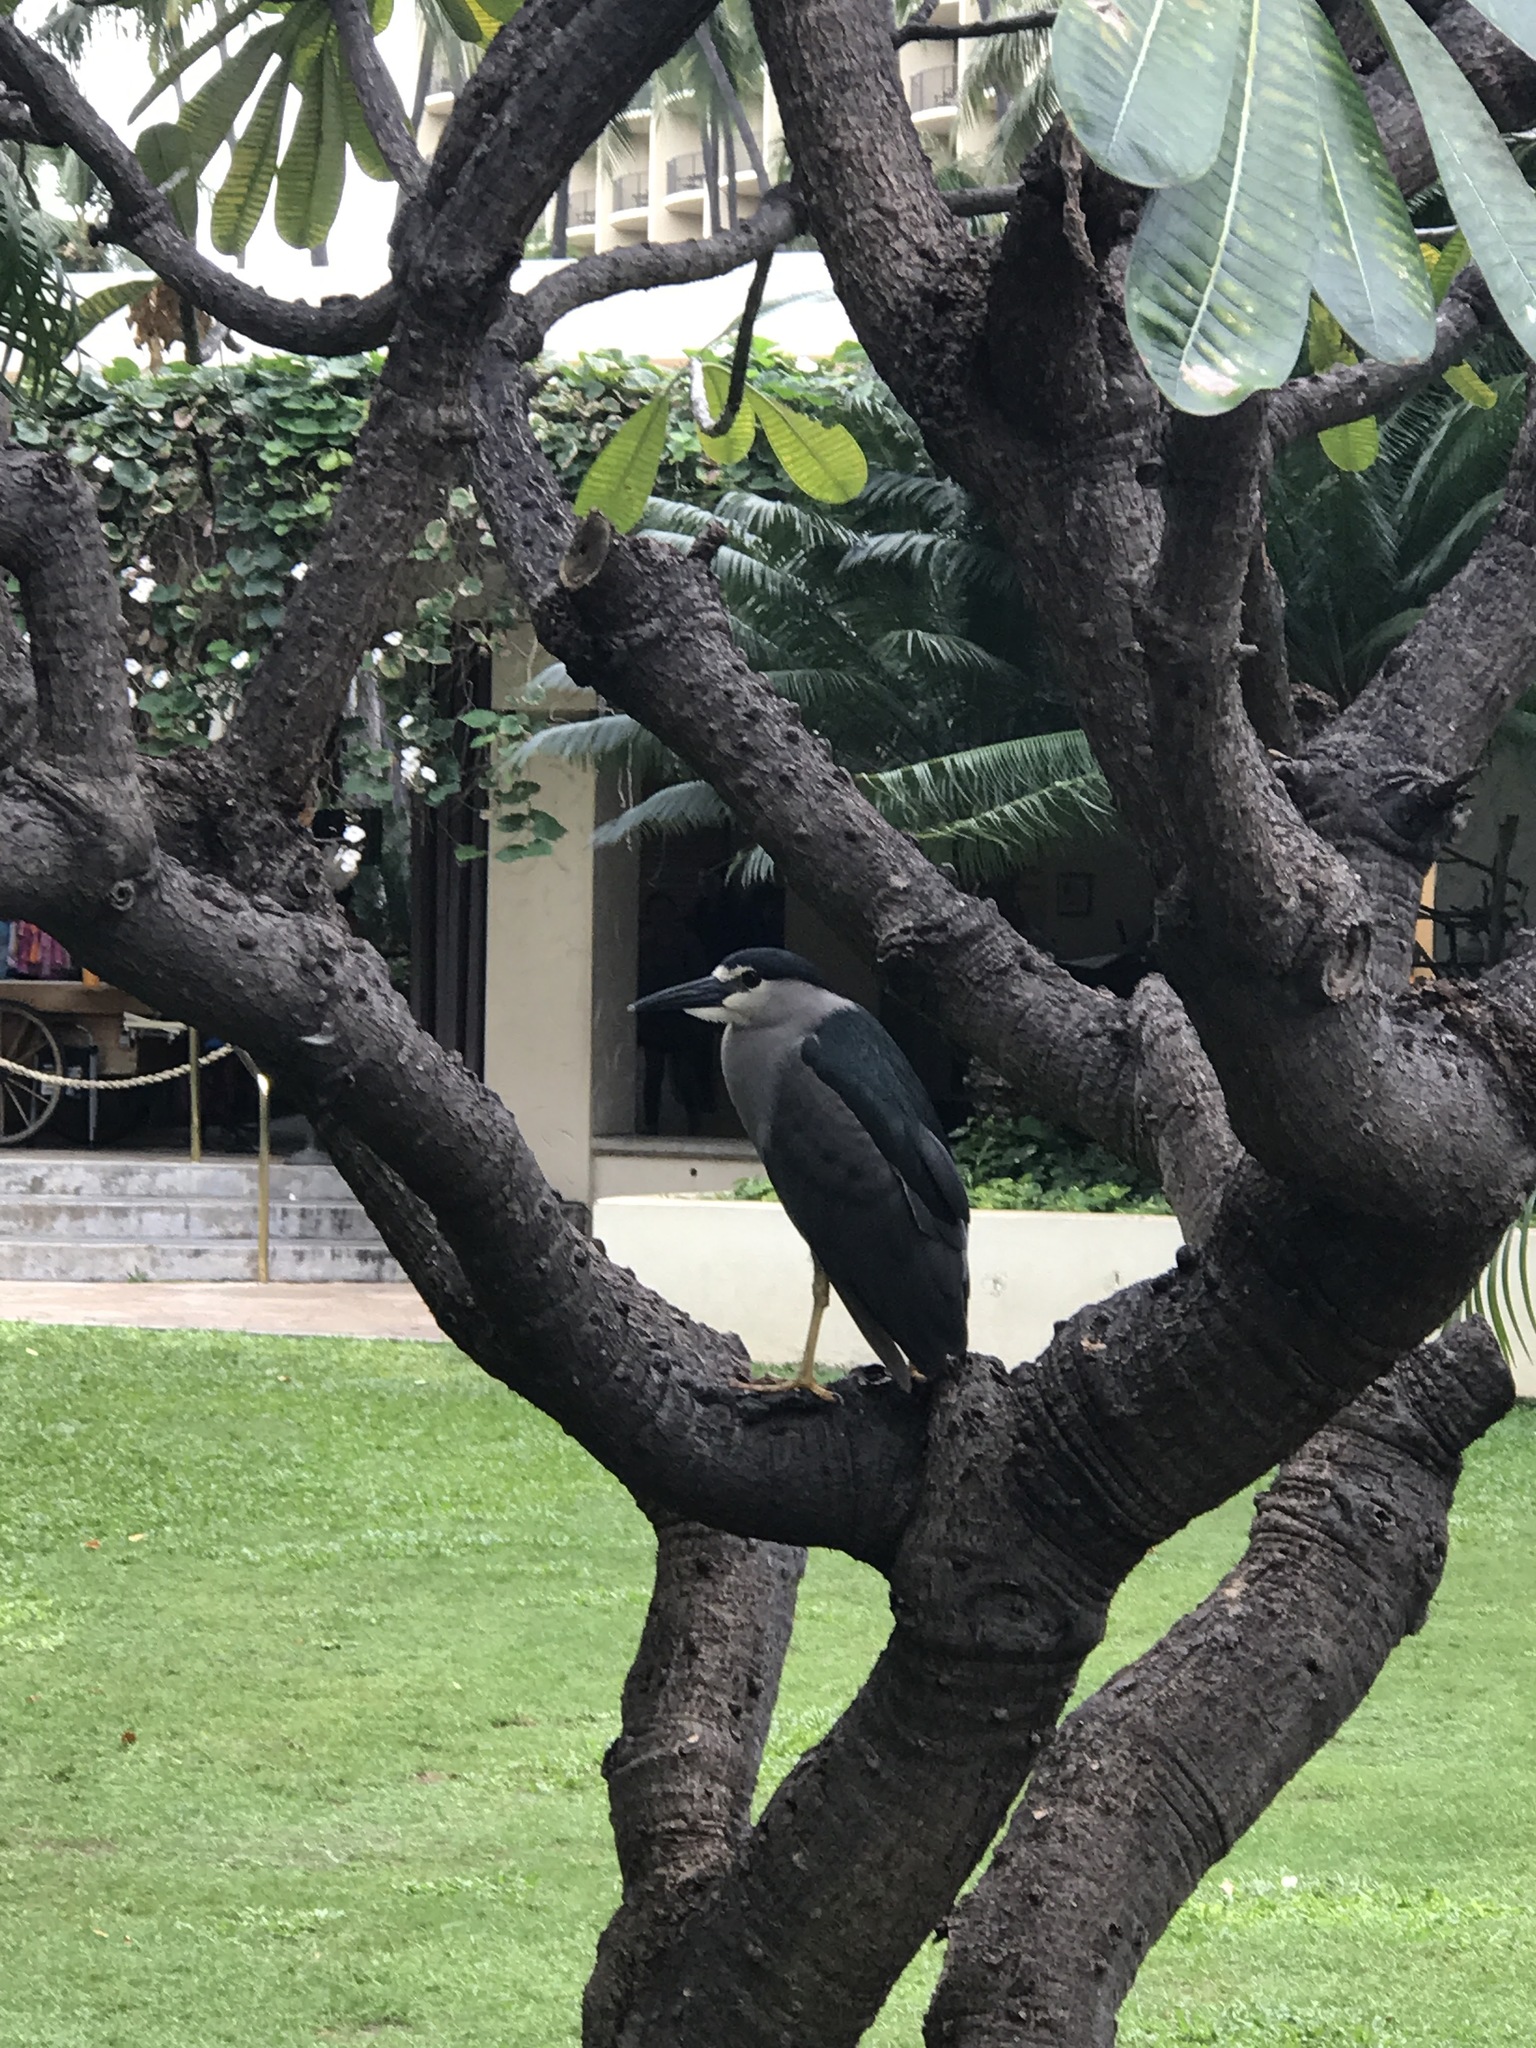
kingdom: Animalia
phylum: Chordata
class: Aves
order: Pelecaniformes
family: Ardeidae
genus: Nycticorax
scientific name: Nycticorax nycticorax
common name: Black-crowned night heron
